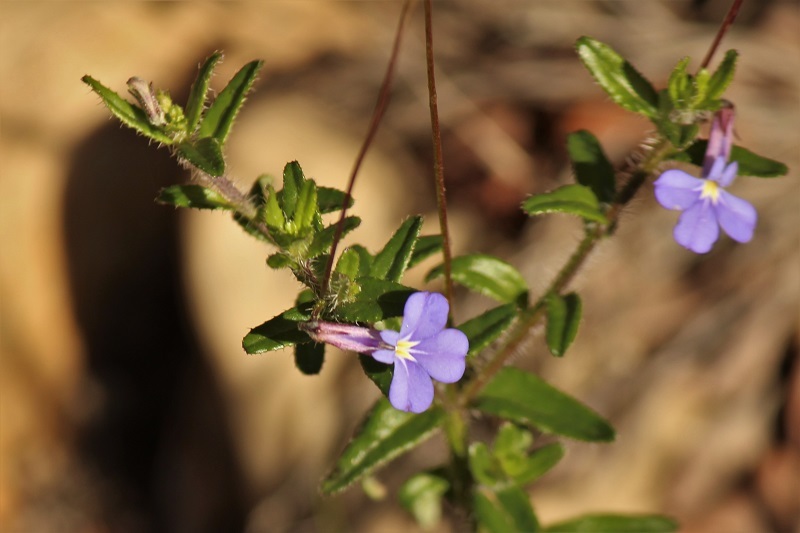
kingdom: Plantae
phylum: Tracheophyta
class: Magnoliopsida
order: Asterales
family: Campanulaceae
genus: Lobelia
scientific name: Lobelia neglecta
